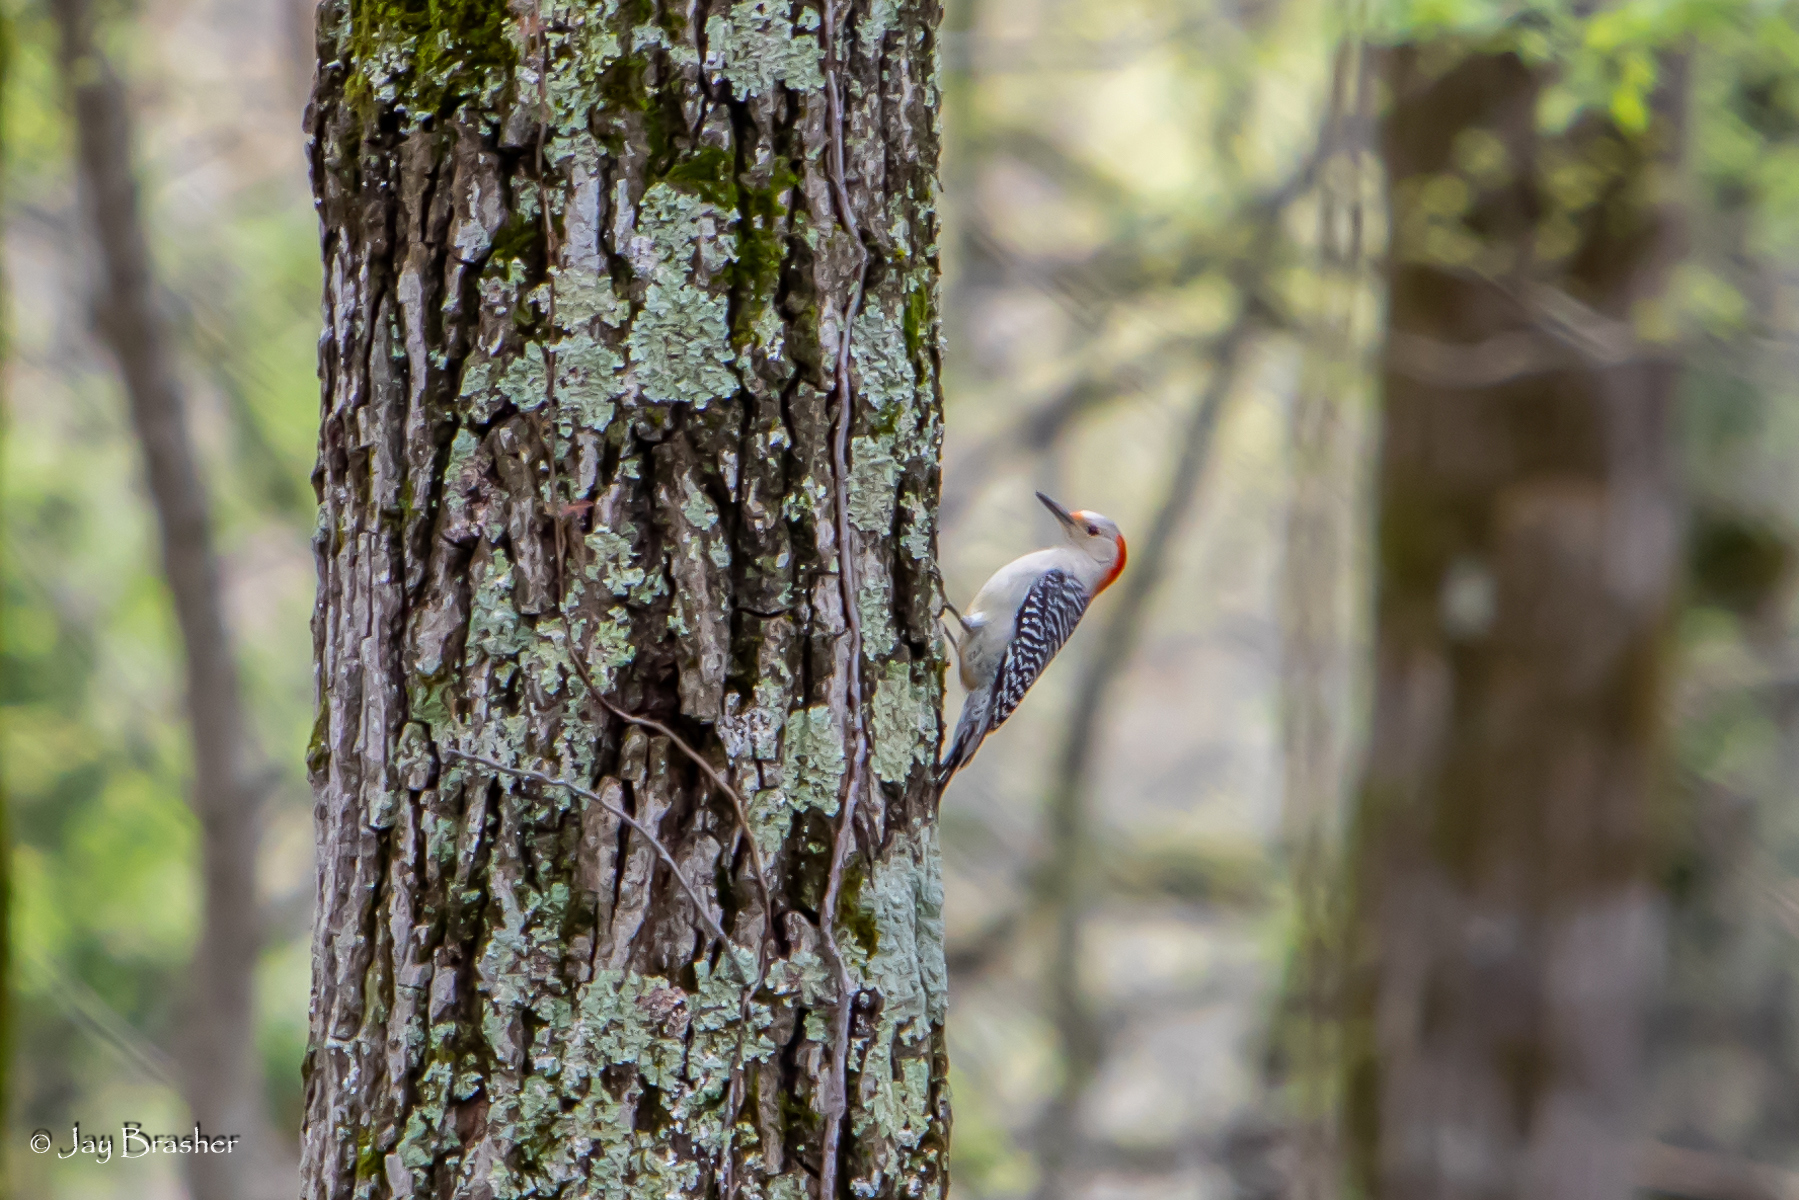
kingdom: Animalia
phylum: Chordata
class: Aves
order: Piciformes
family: Picidae
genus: Melanerpes
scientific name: Melanerpes carolinus
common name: Red-bellied woodpecker
